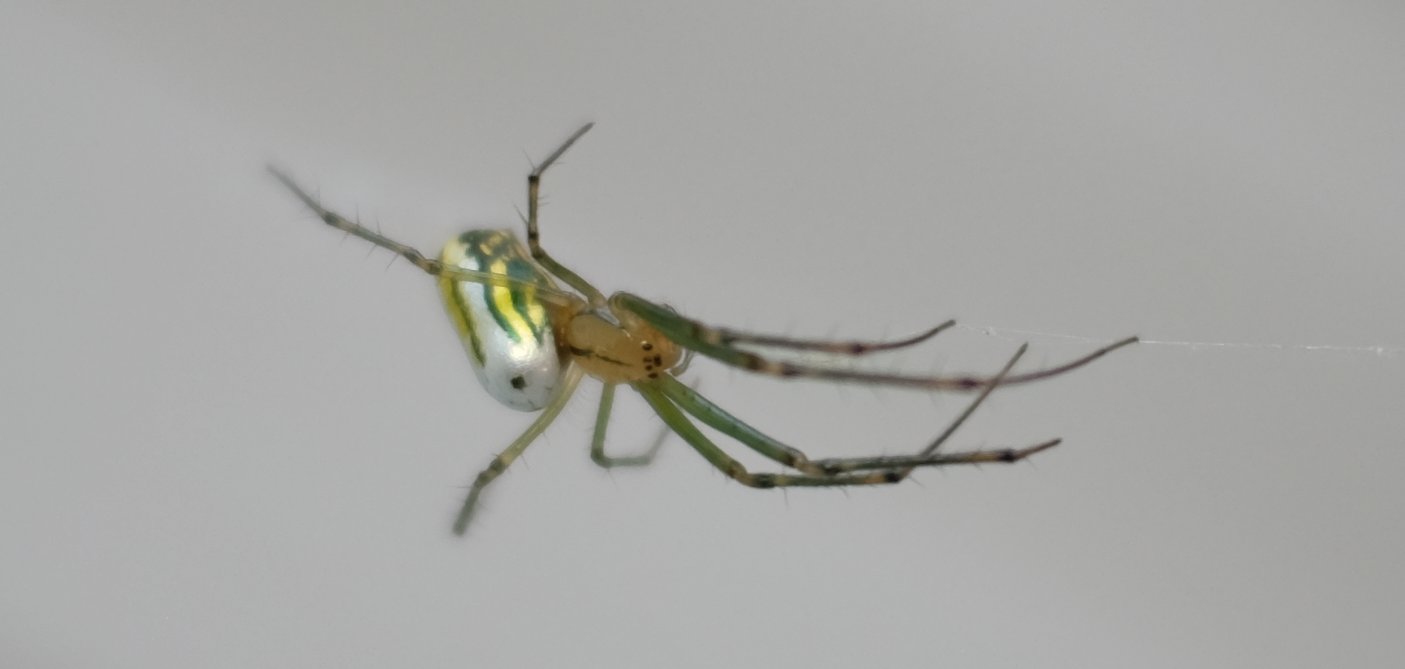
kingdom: Animalia
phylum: Arthropoda
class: Arachnida
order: Araneae
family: Tetragnathidae
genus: Leucauge
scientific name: Leucauge venusta
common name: Longjawed orb weavers
